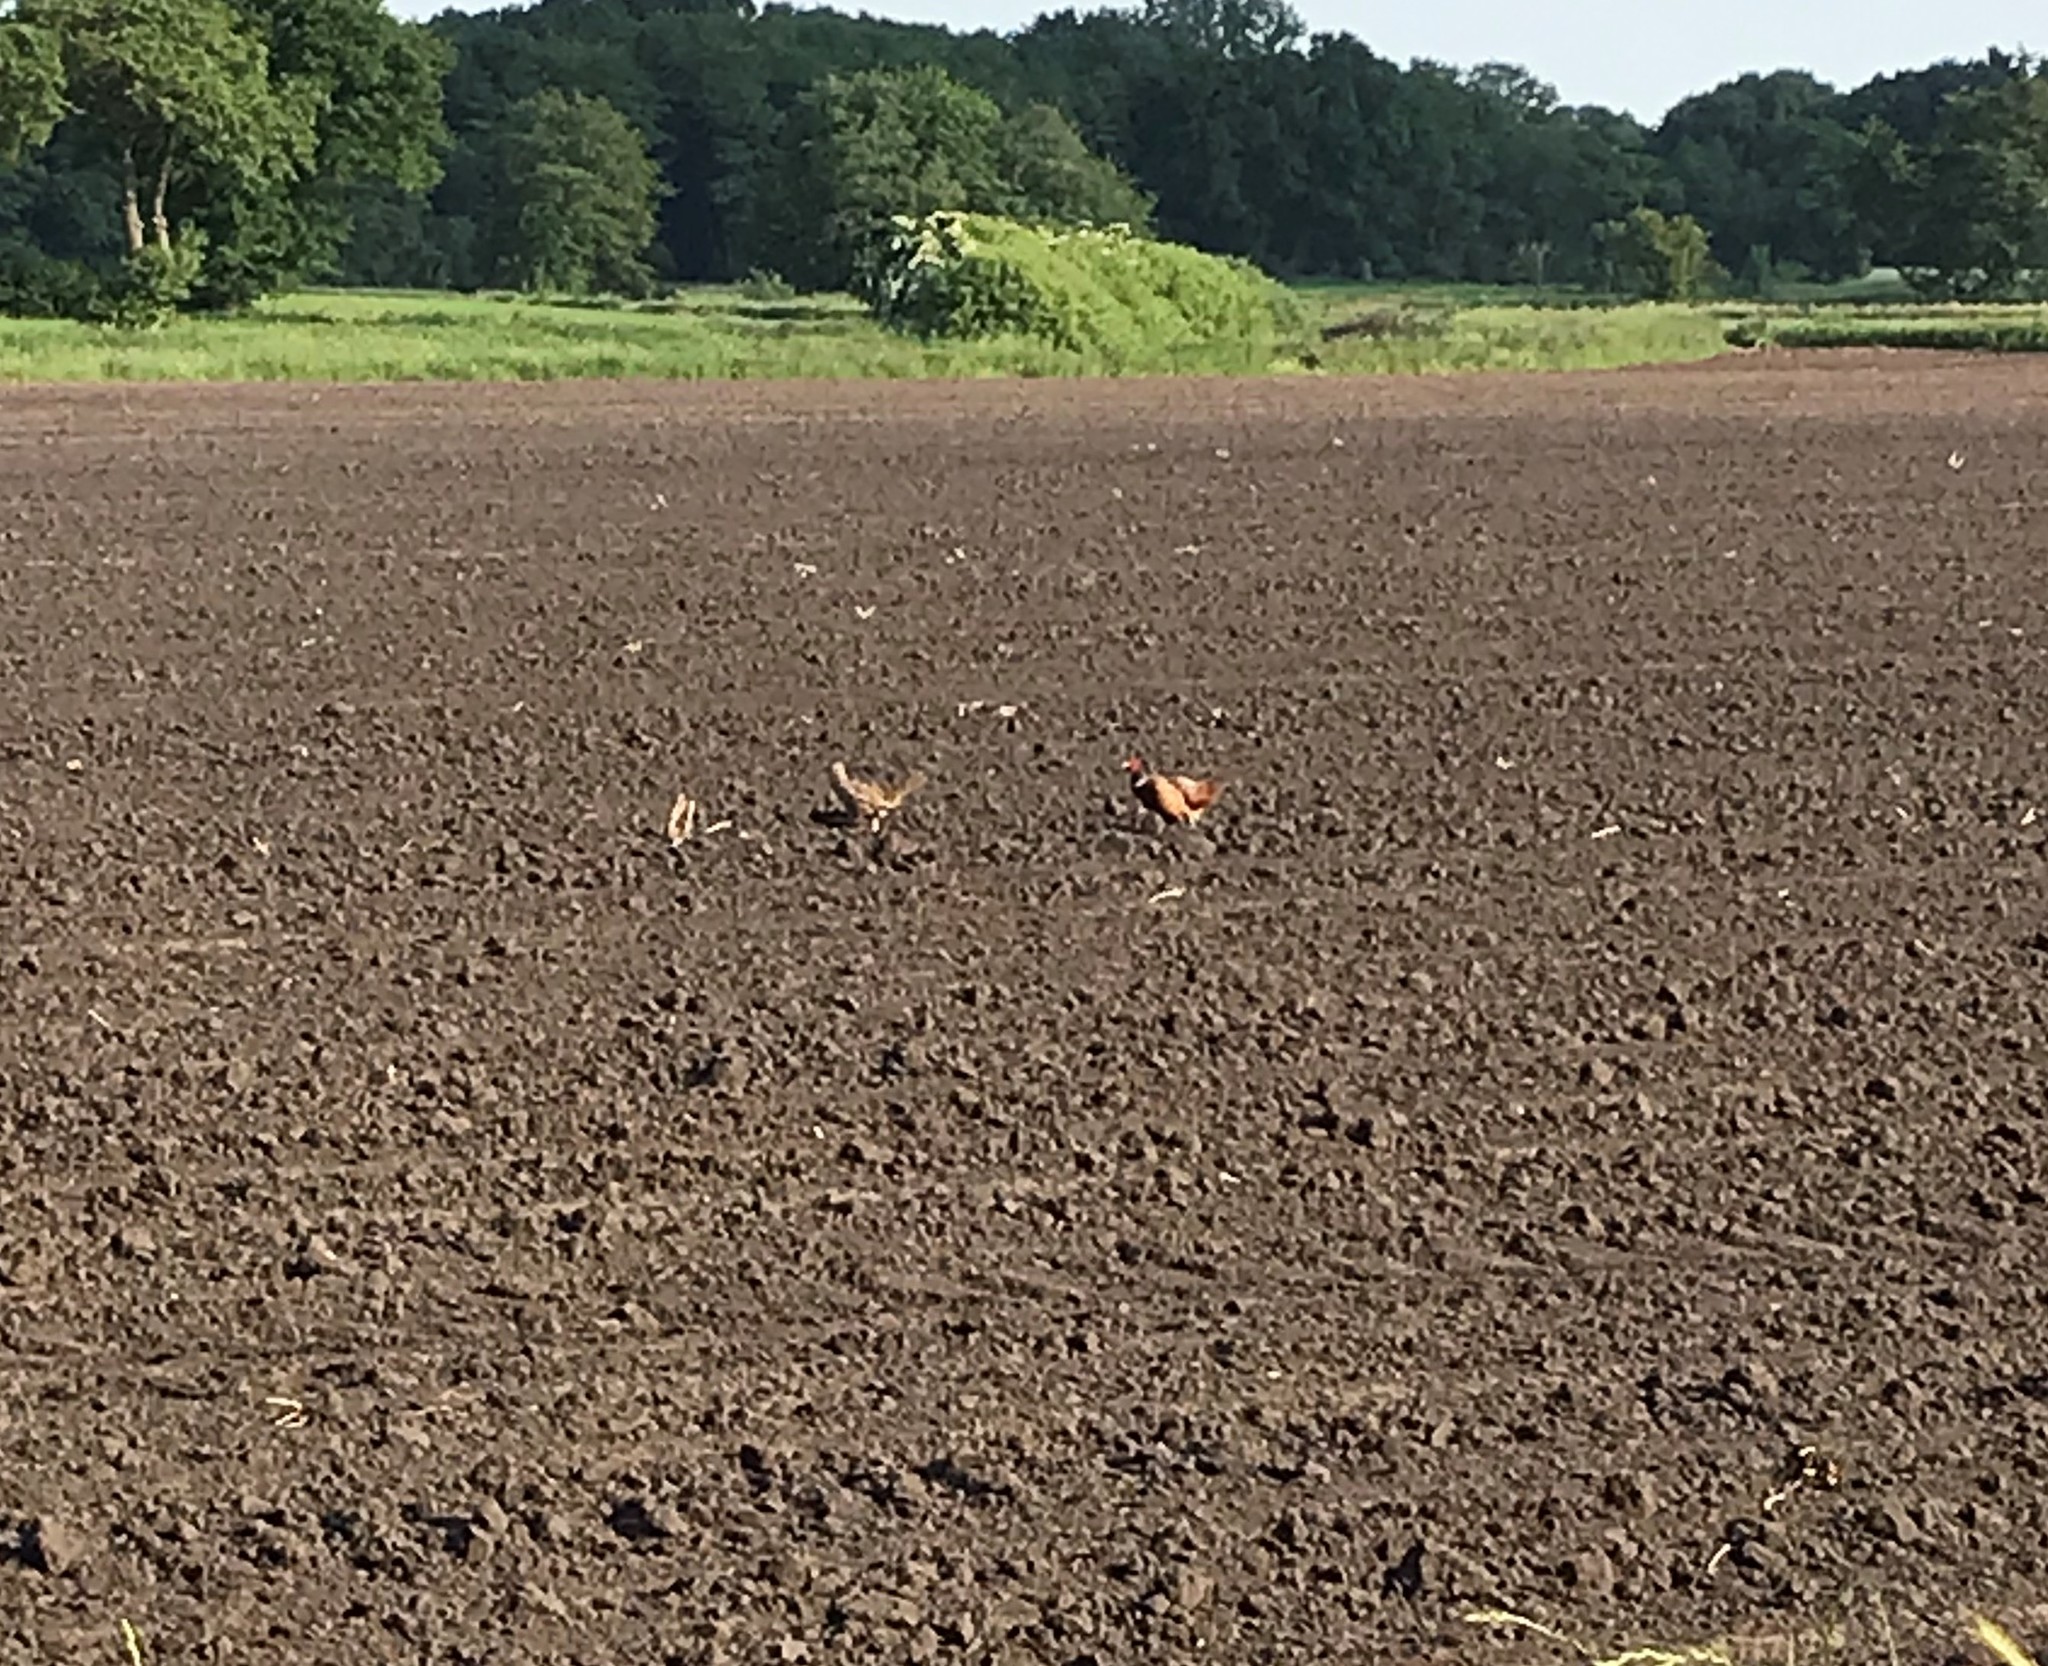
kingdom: Animalia
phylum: Chordata
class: Aves
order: Galliformes
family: Phasianidae
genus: Phasianus
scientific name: Phasianus colchicus
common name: Common pheasant
